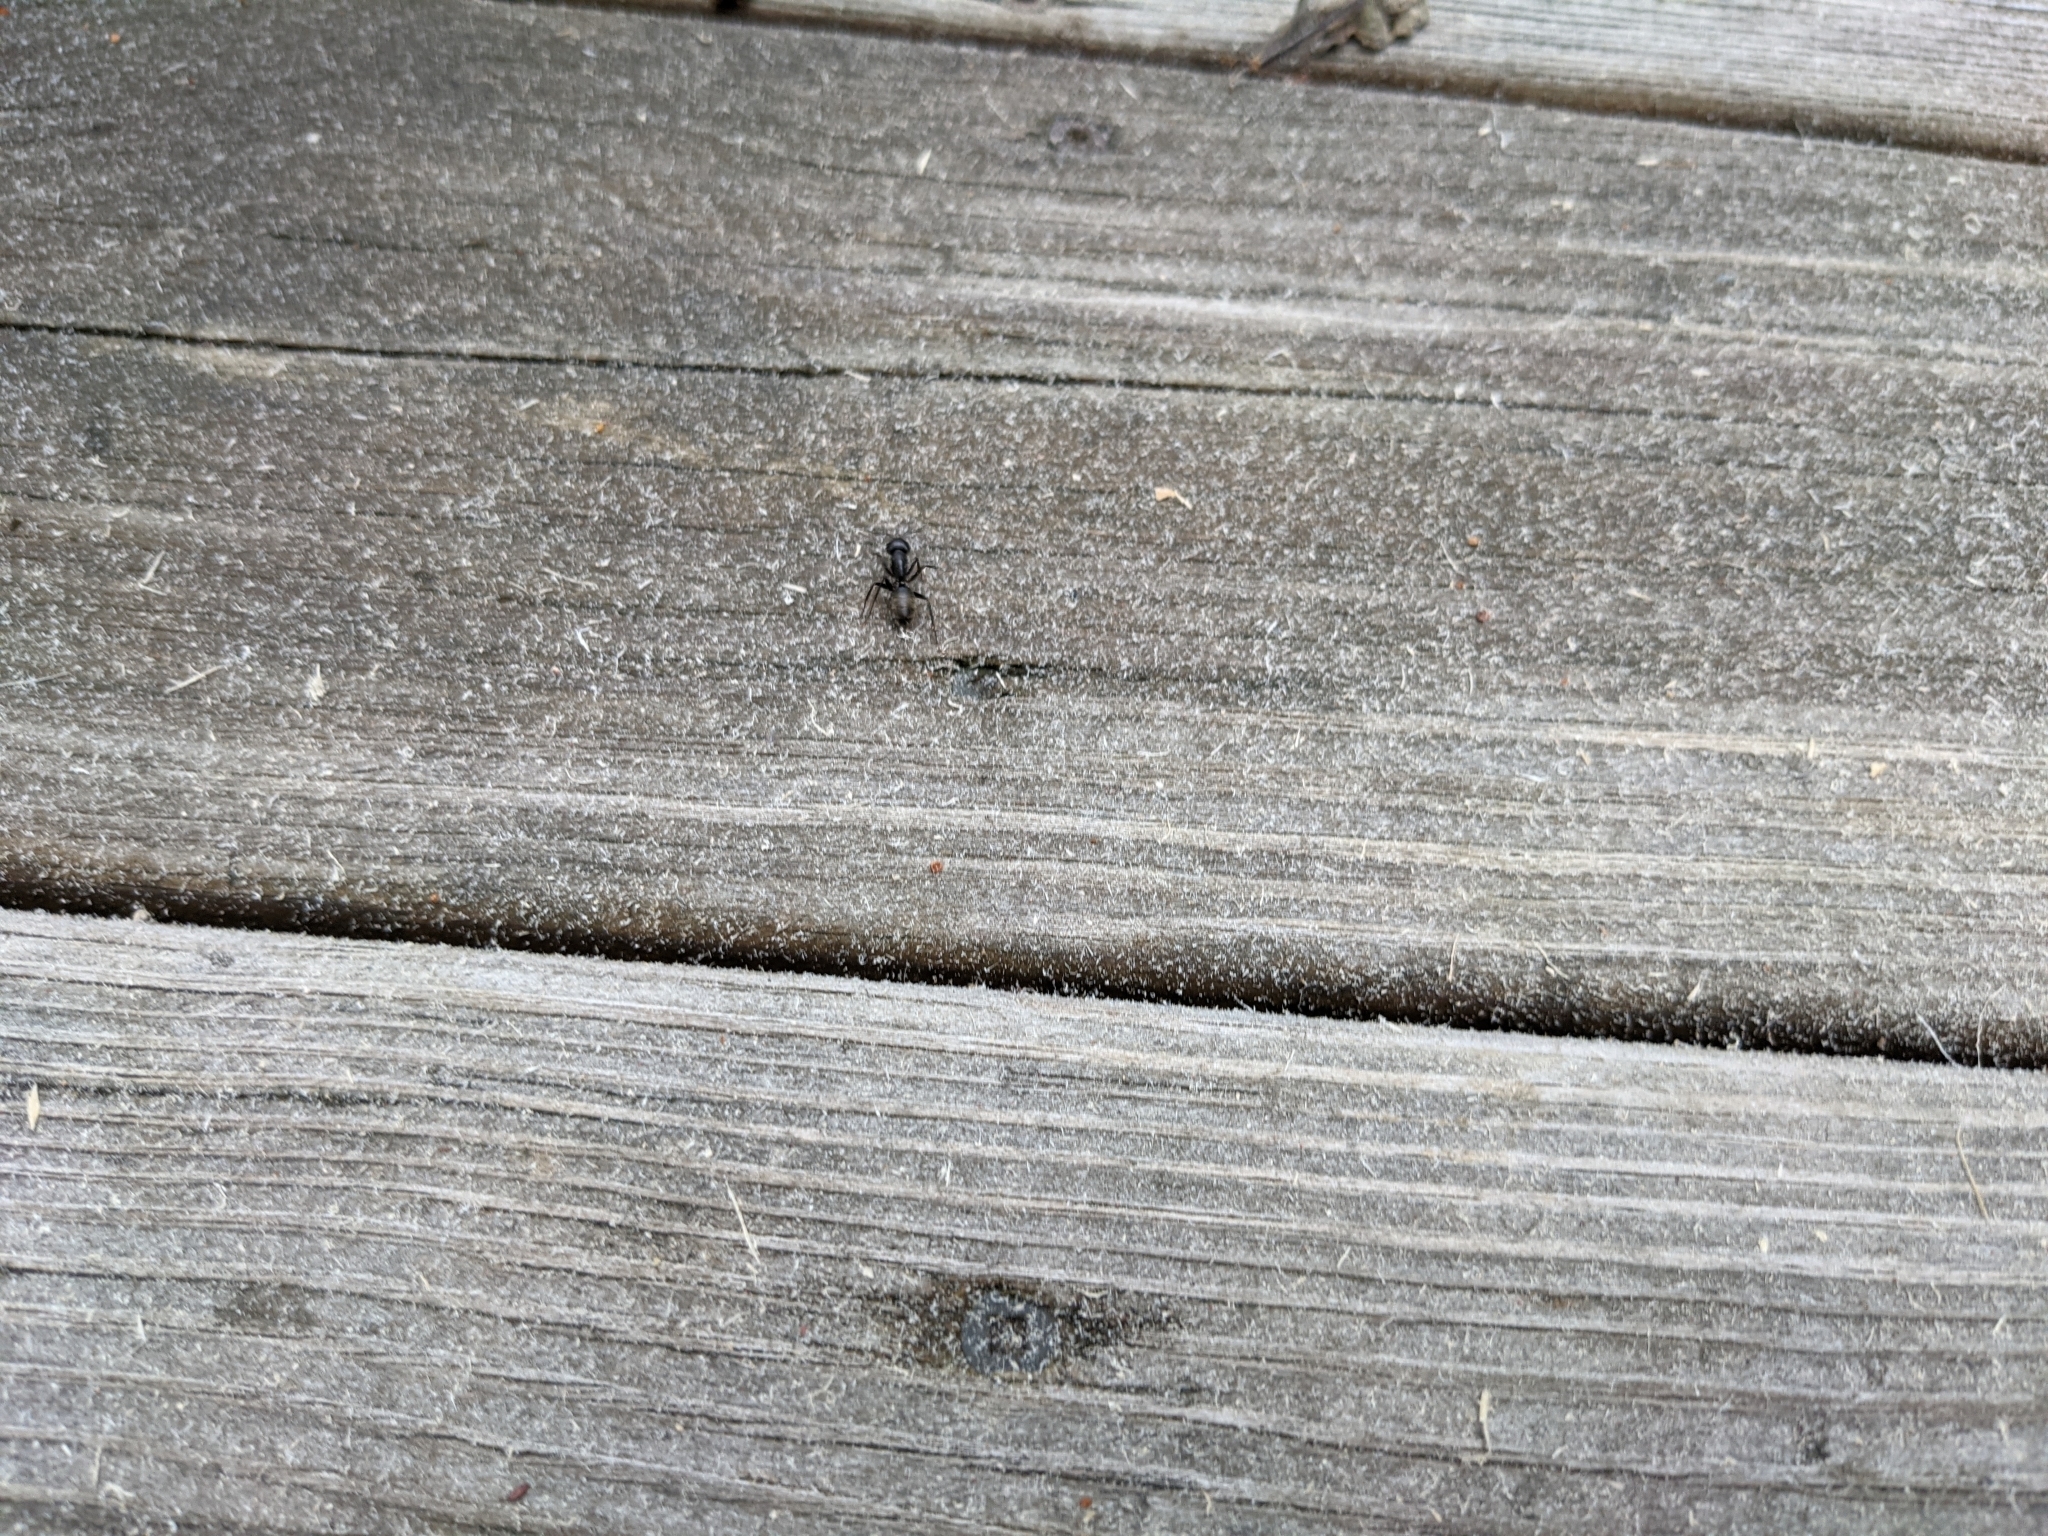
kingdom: Animalia
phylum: Arthropoda
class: Insecta
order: Hymenoptera
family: Formicidae
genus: Camponotus
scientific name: Camponotus pennsylvanicus
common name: Black carpenter ant
